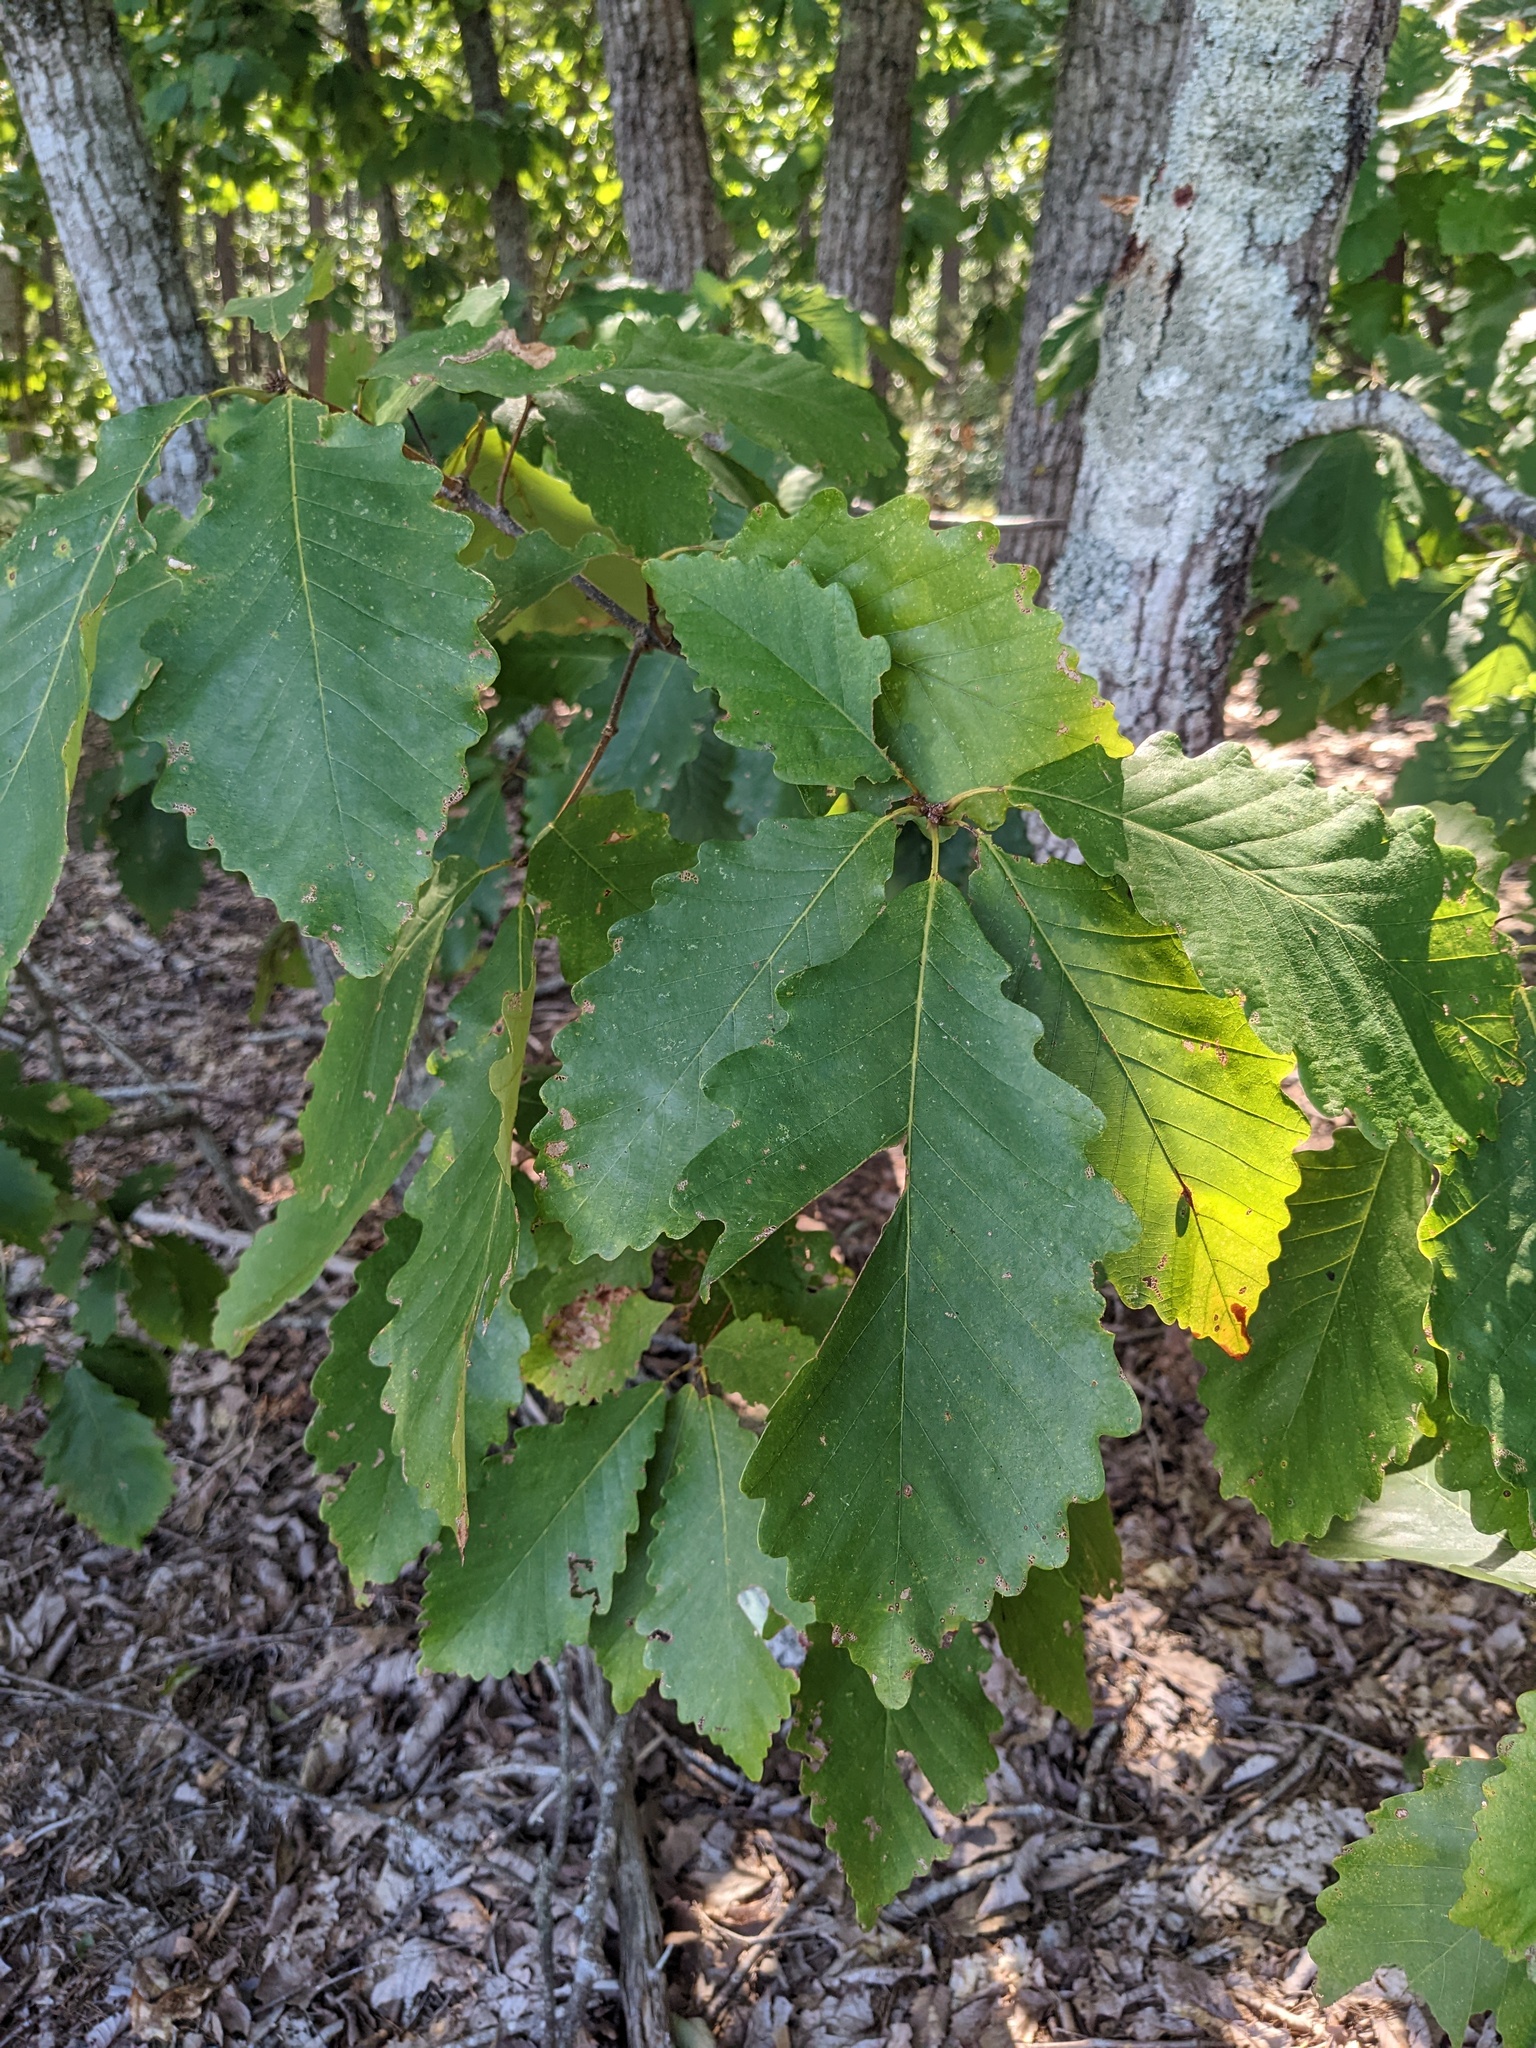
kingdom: Plantae
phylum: Tracheophyta
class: Magnoliopsida
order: Fagales
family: Fagaceae
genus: Quercus
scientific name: Quercus montana
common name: Chestnut oak
